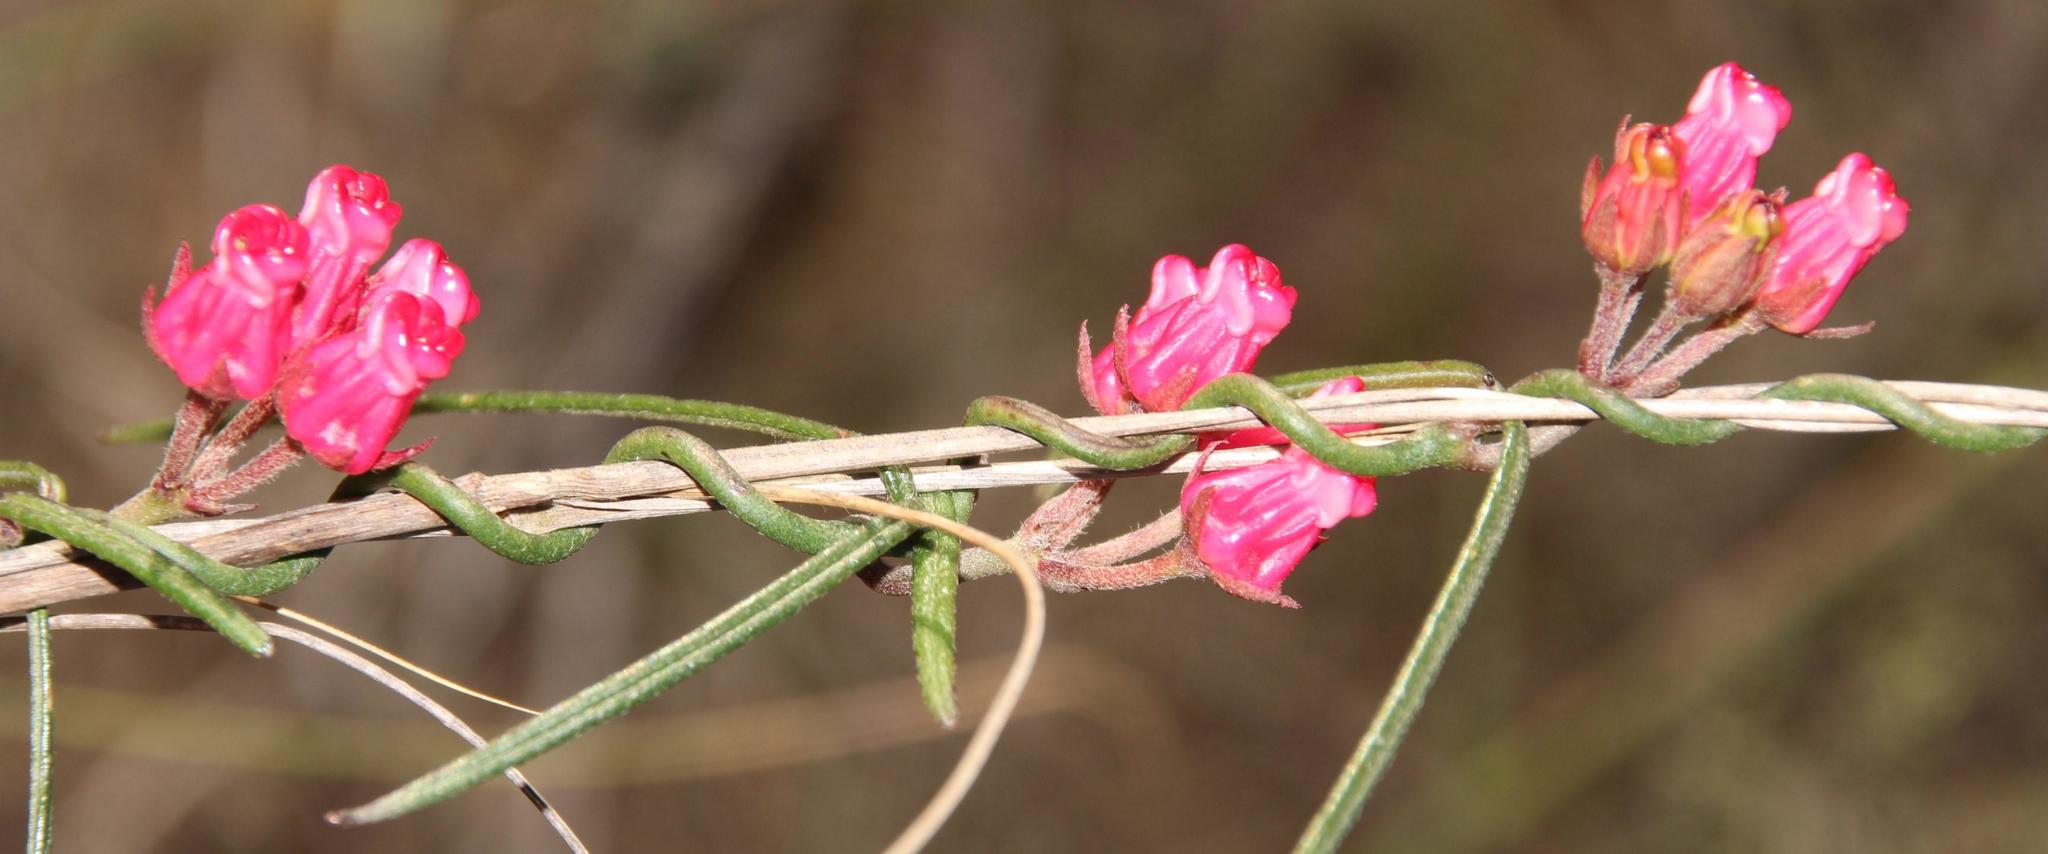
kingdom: Plantae
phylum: Tracheophyta
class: Magnoliopsida
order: Gentianales
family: Apocynaceae
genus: Microloma
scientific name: Microloma tenuifolium
